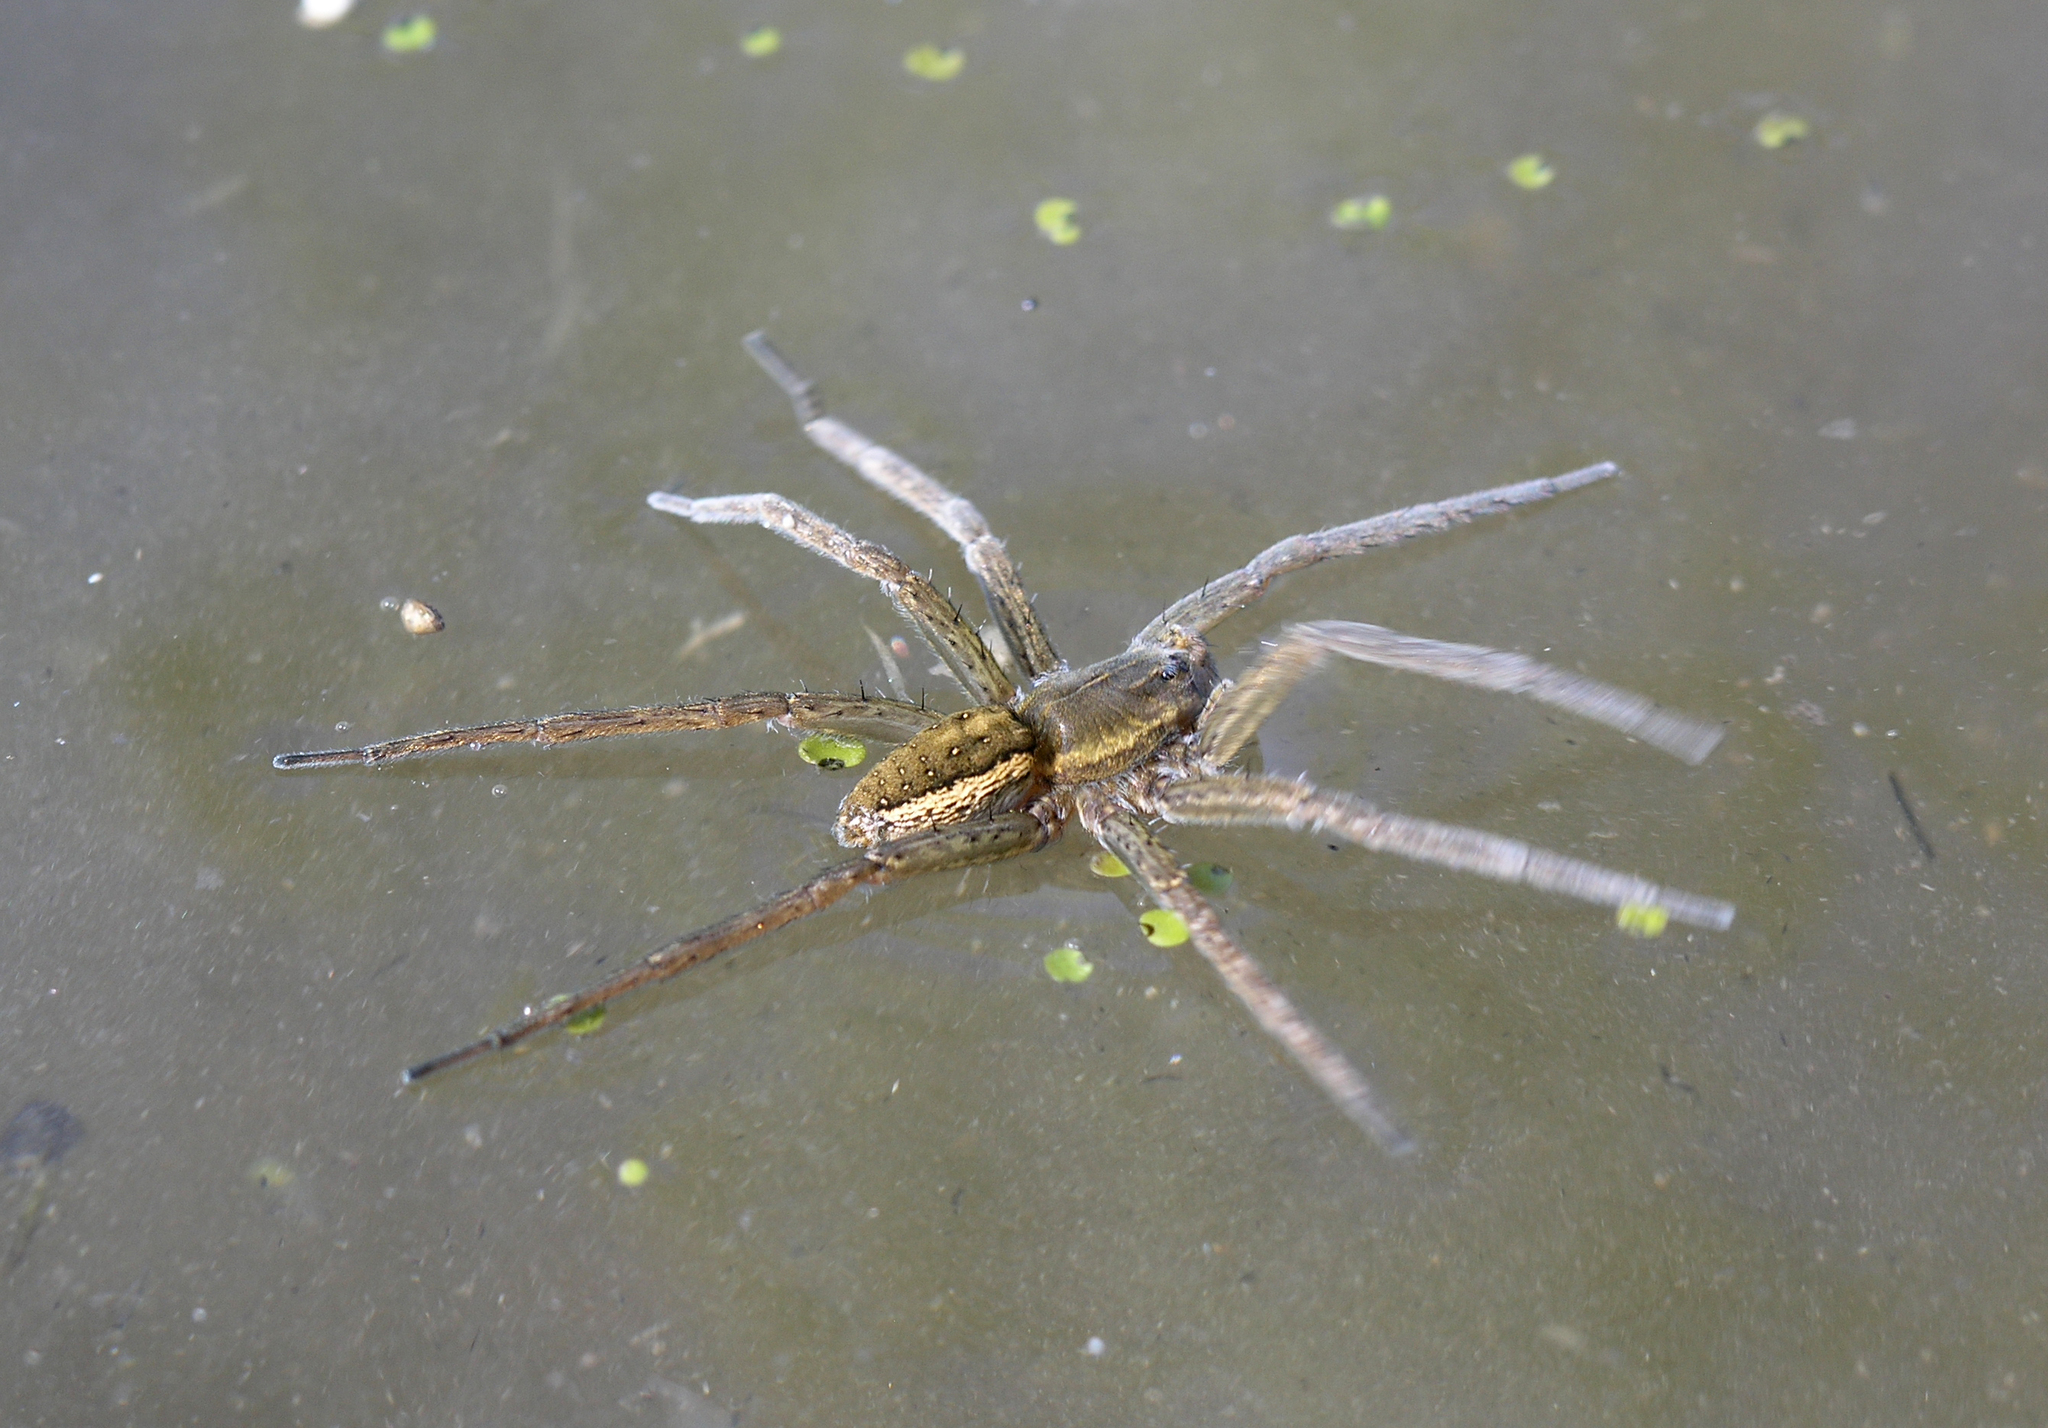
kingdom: Animalia
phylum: Arthropoda
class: Arachnida
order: Araneae
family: Pisauridae
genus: Dolomedes
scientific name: Dolomedes fimbriatus
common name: Raft spider
